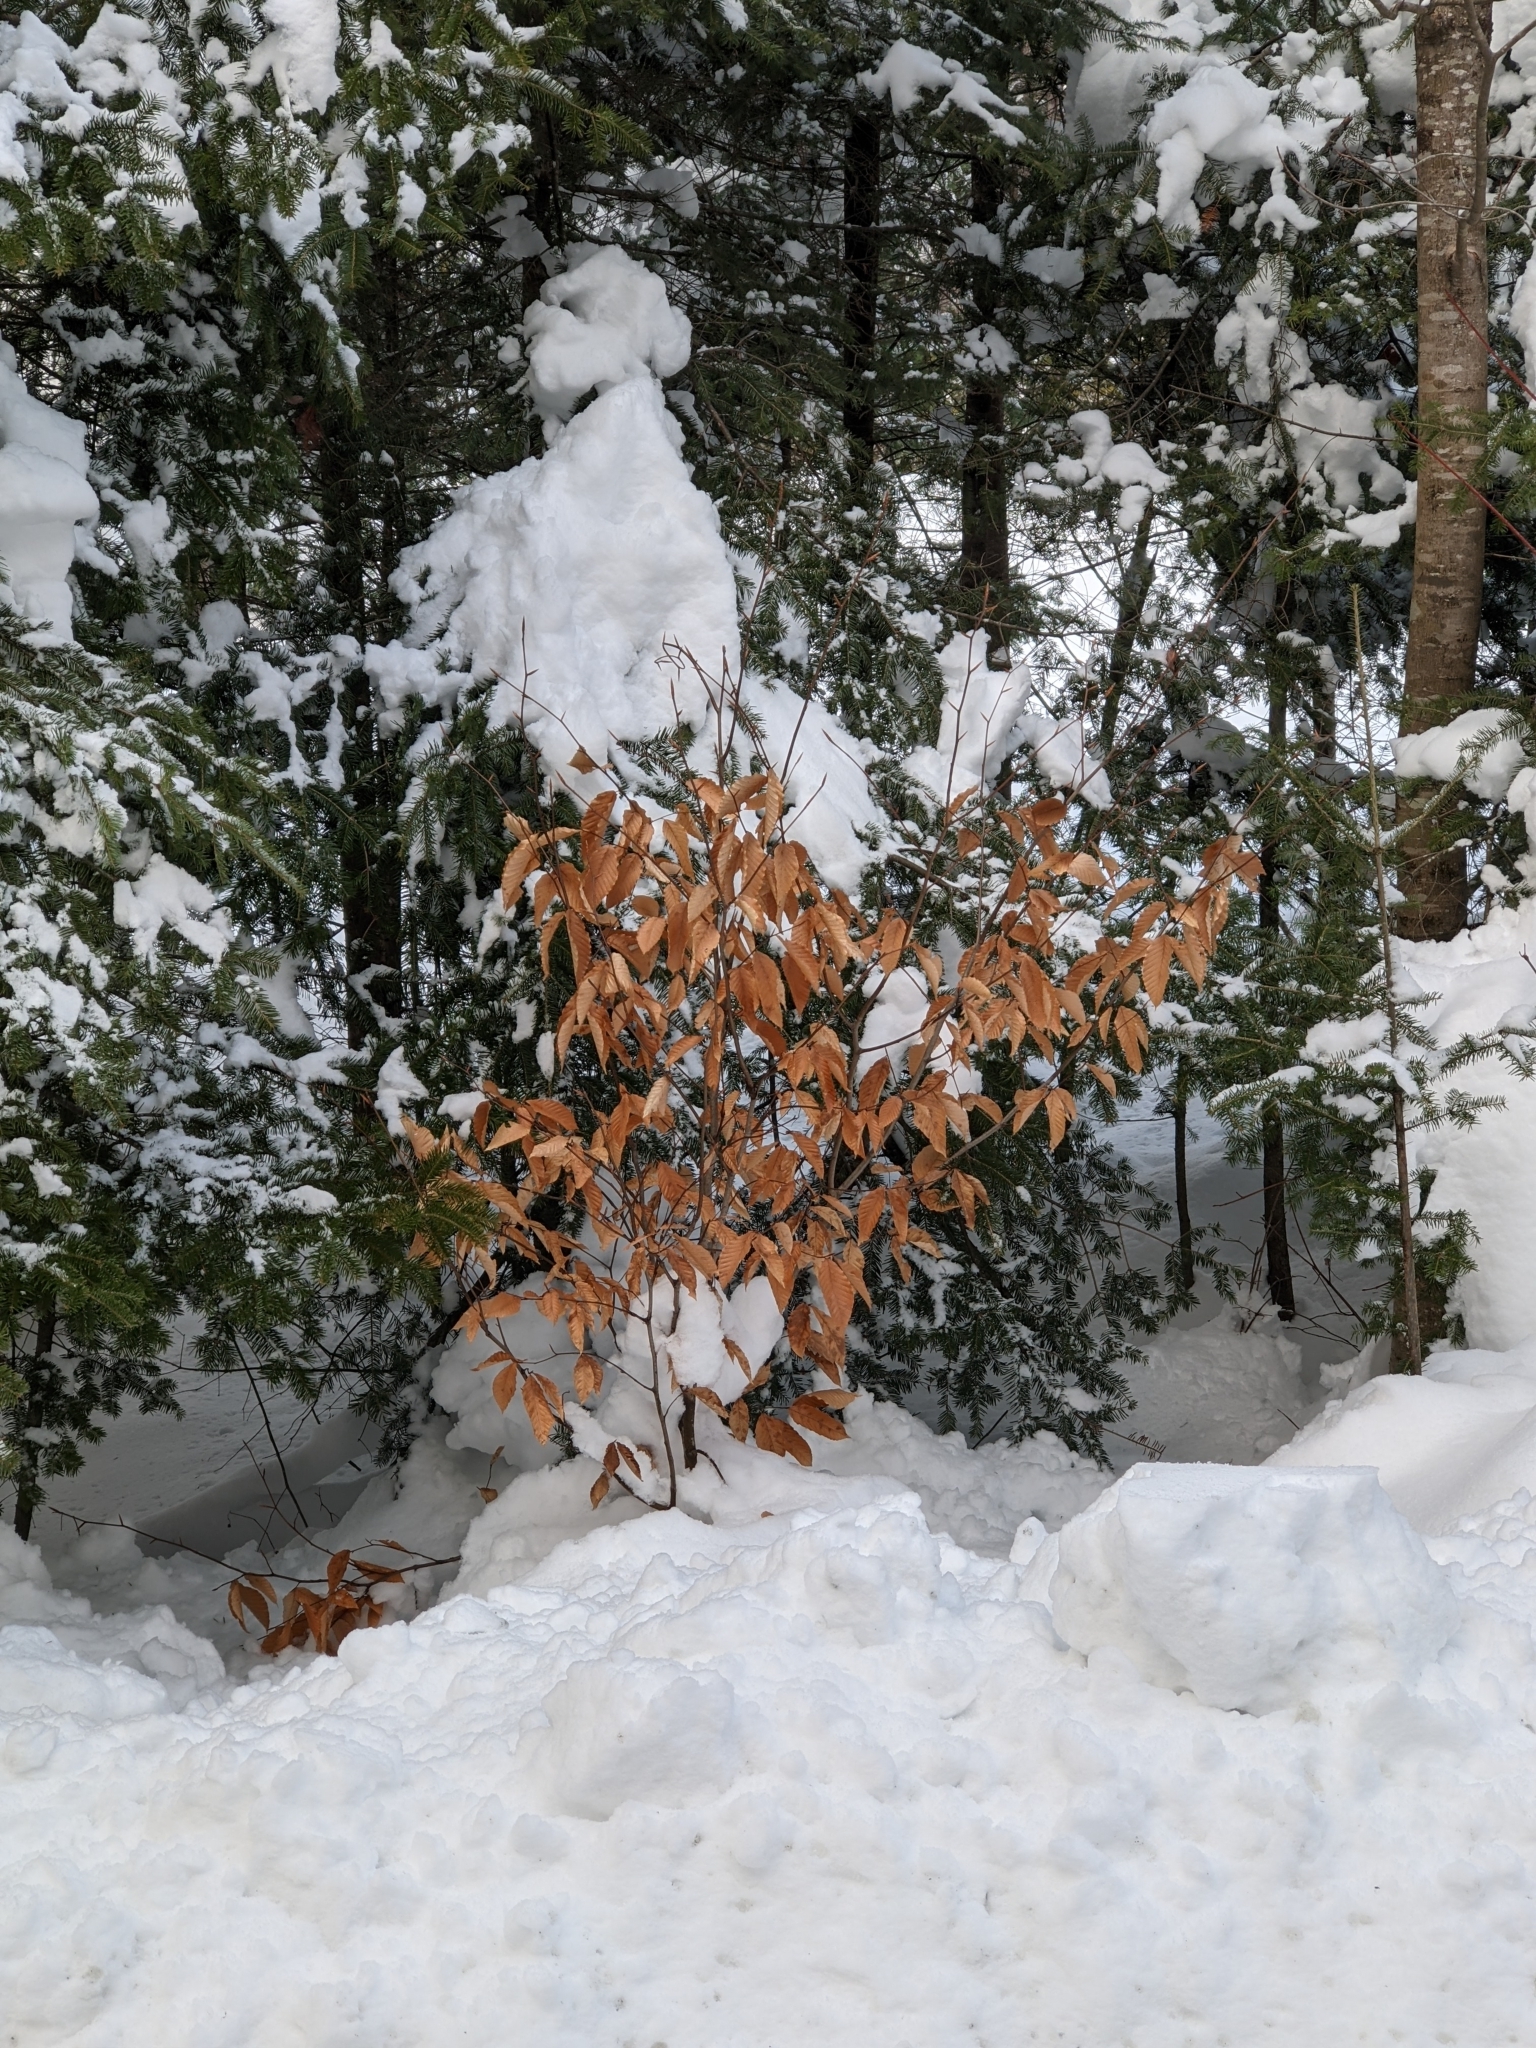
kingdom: Plantae
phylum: Tracheophyta
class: Magnoliopsida
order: Fagales
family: Fagaceae
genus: Fagus
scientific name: Fagus grandifolia
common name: American beech
